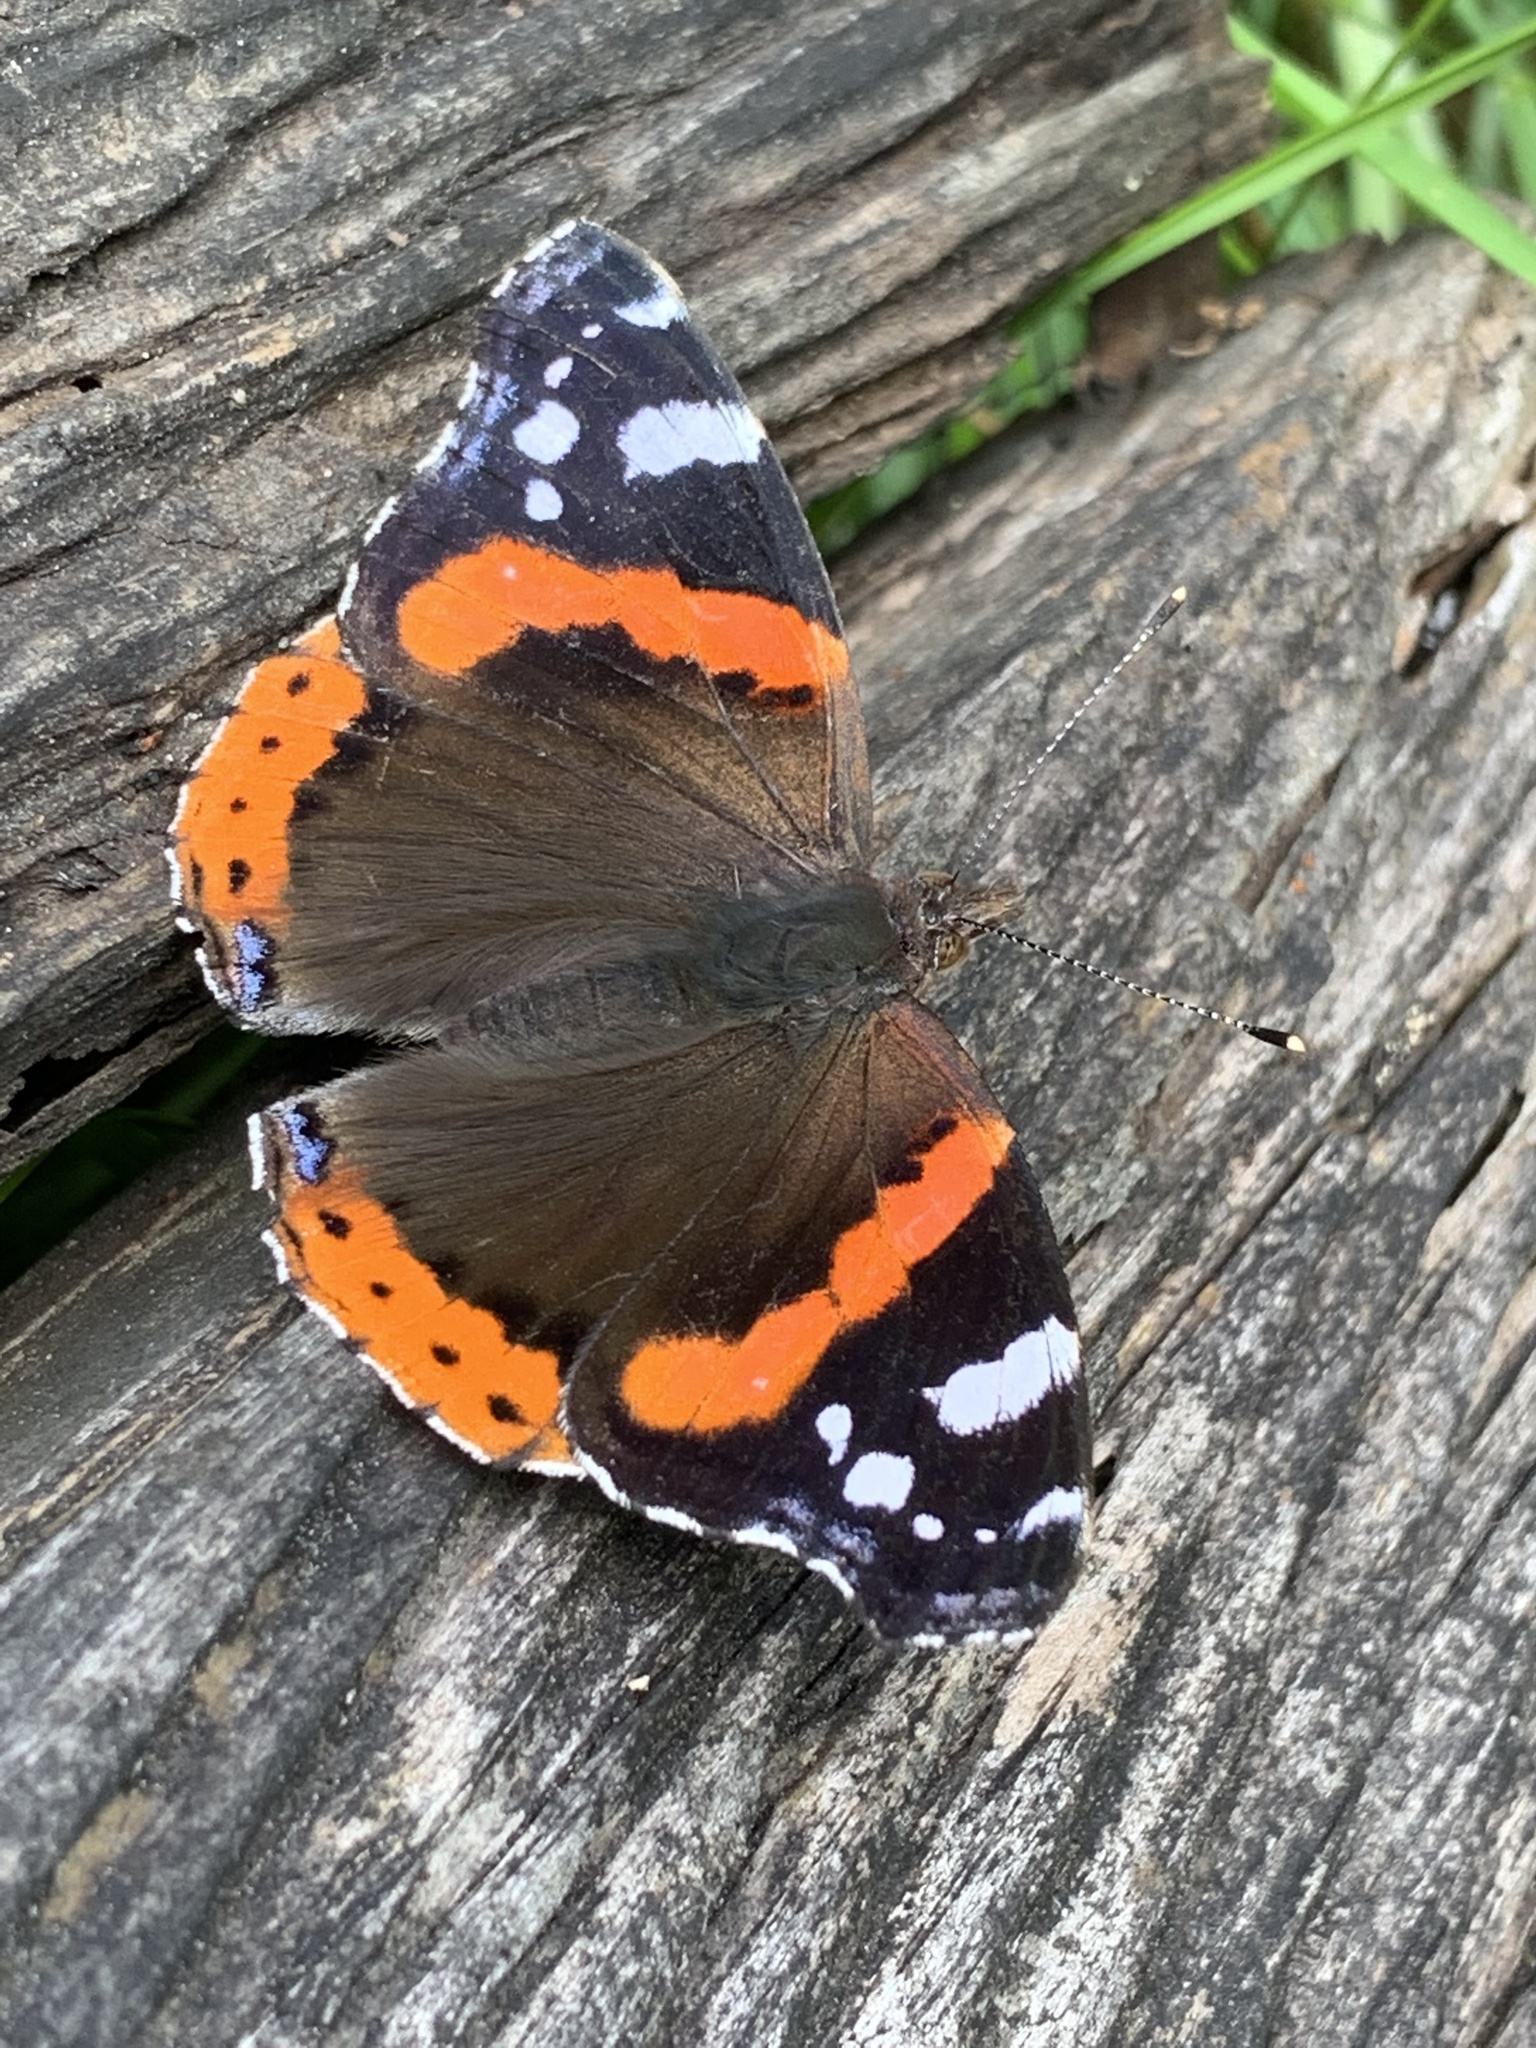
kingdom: Animalia
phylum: Arthropoda
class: Insecta
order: Lepidoptera
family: Nymphalidae
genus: Vanessa
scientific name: Vanessa atalanta
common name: Red admiral
